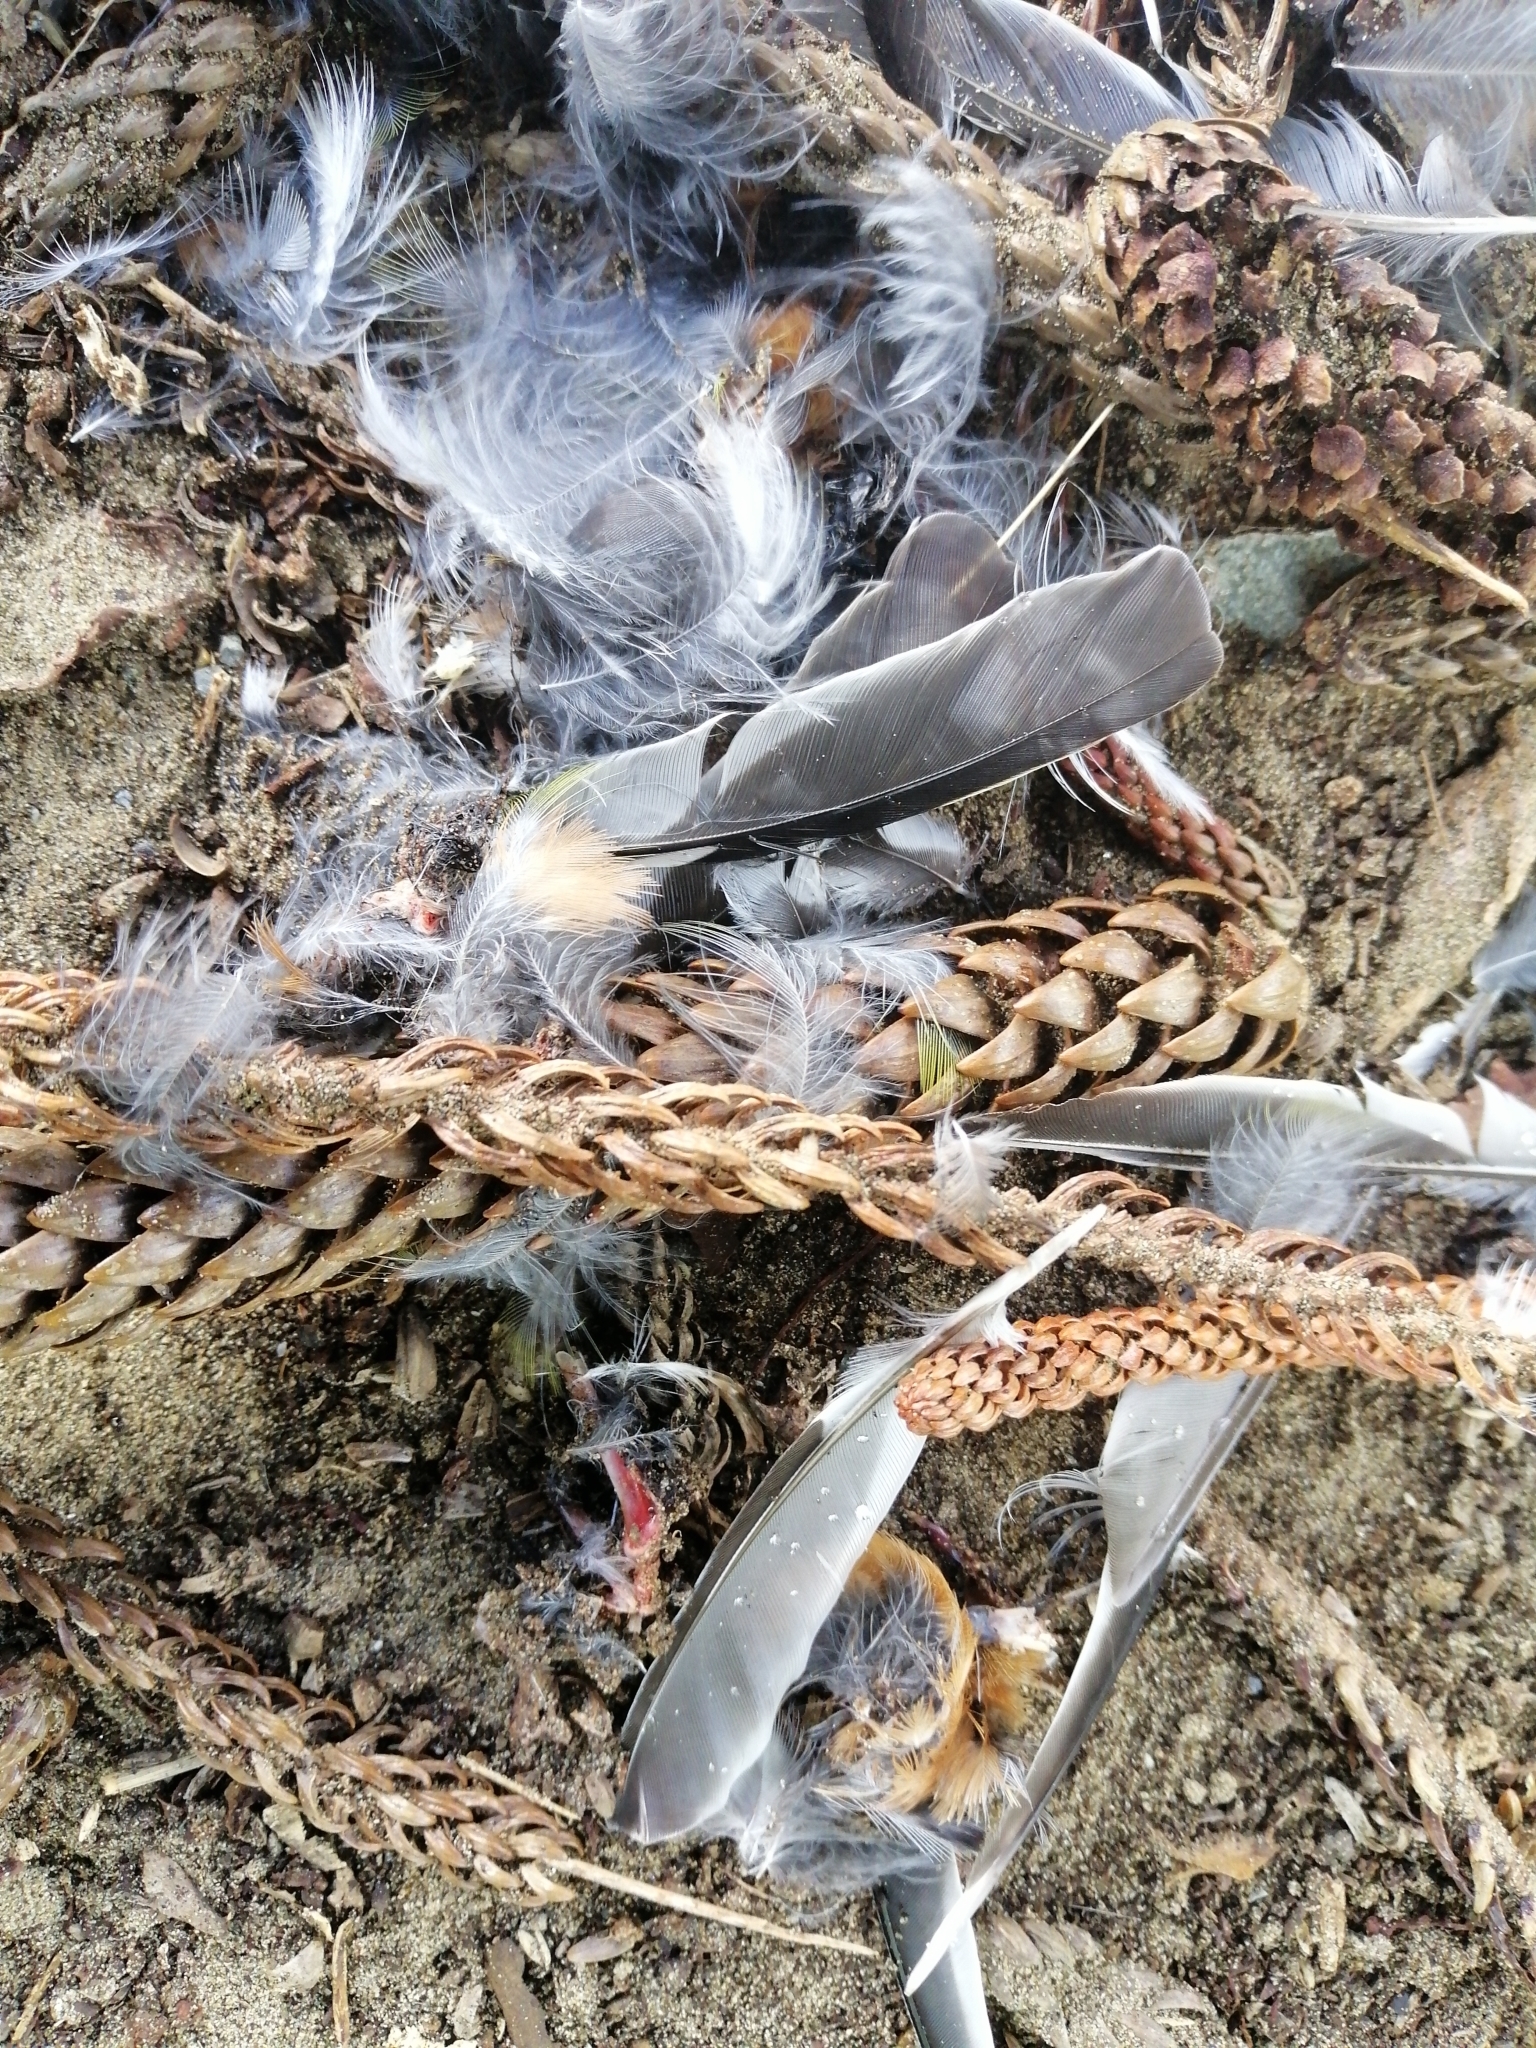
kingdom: Animalia
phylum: Chordata
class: Aves
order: Passeriformes
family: Zosteropidae
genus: Zosterops
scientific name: Zosterops lateralis
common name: Silvereye
